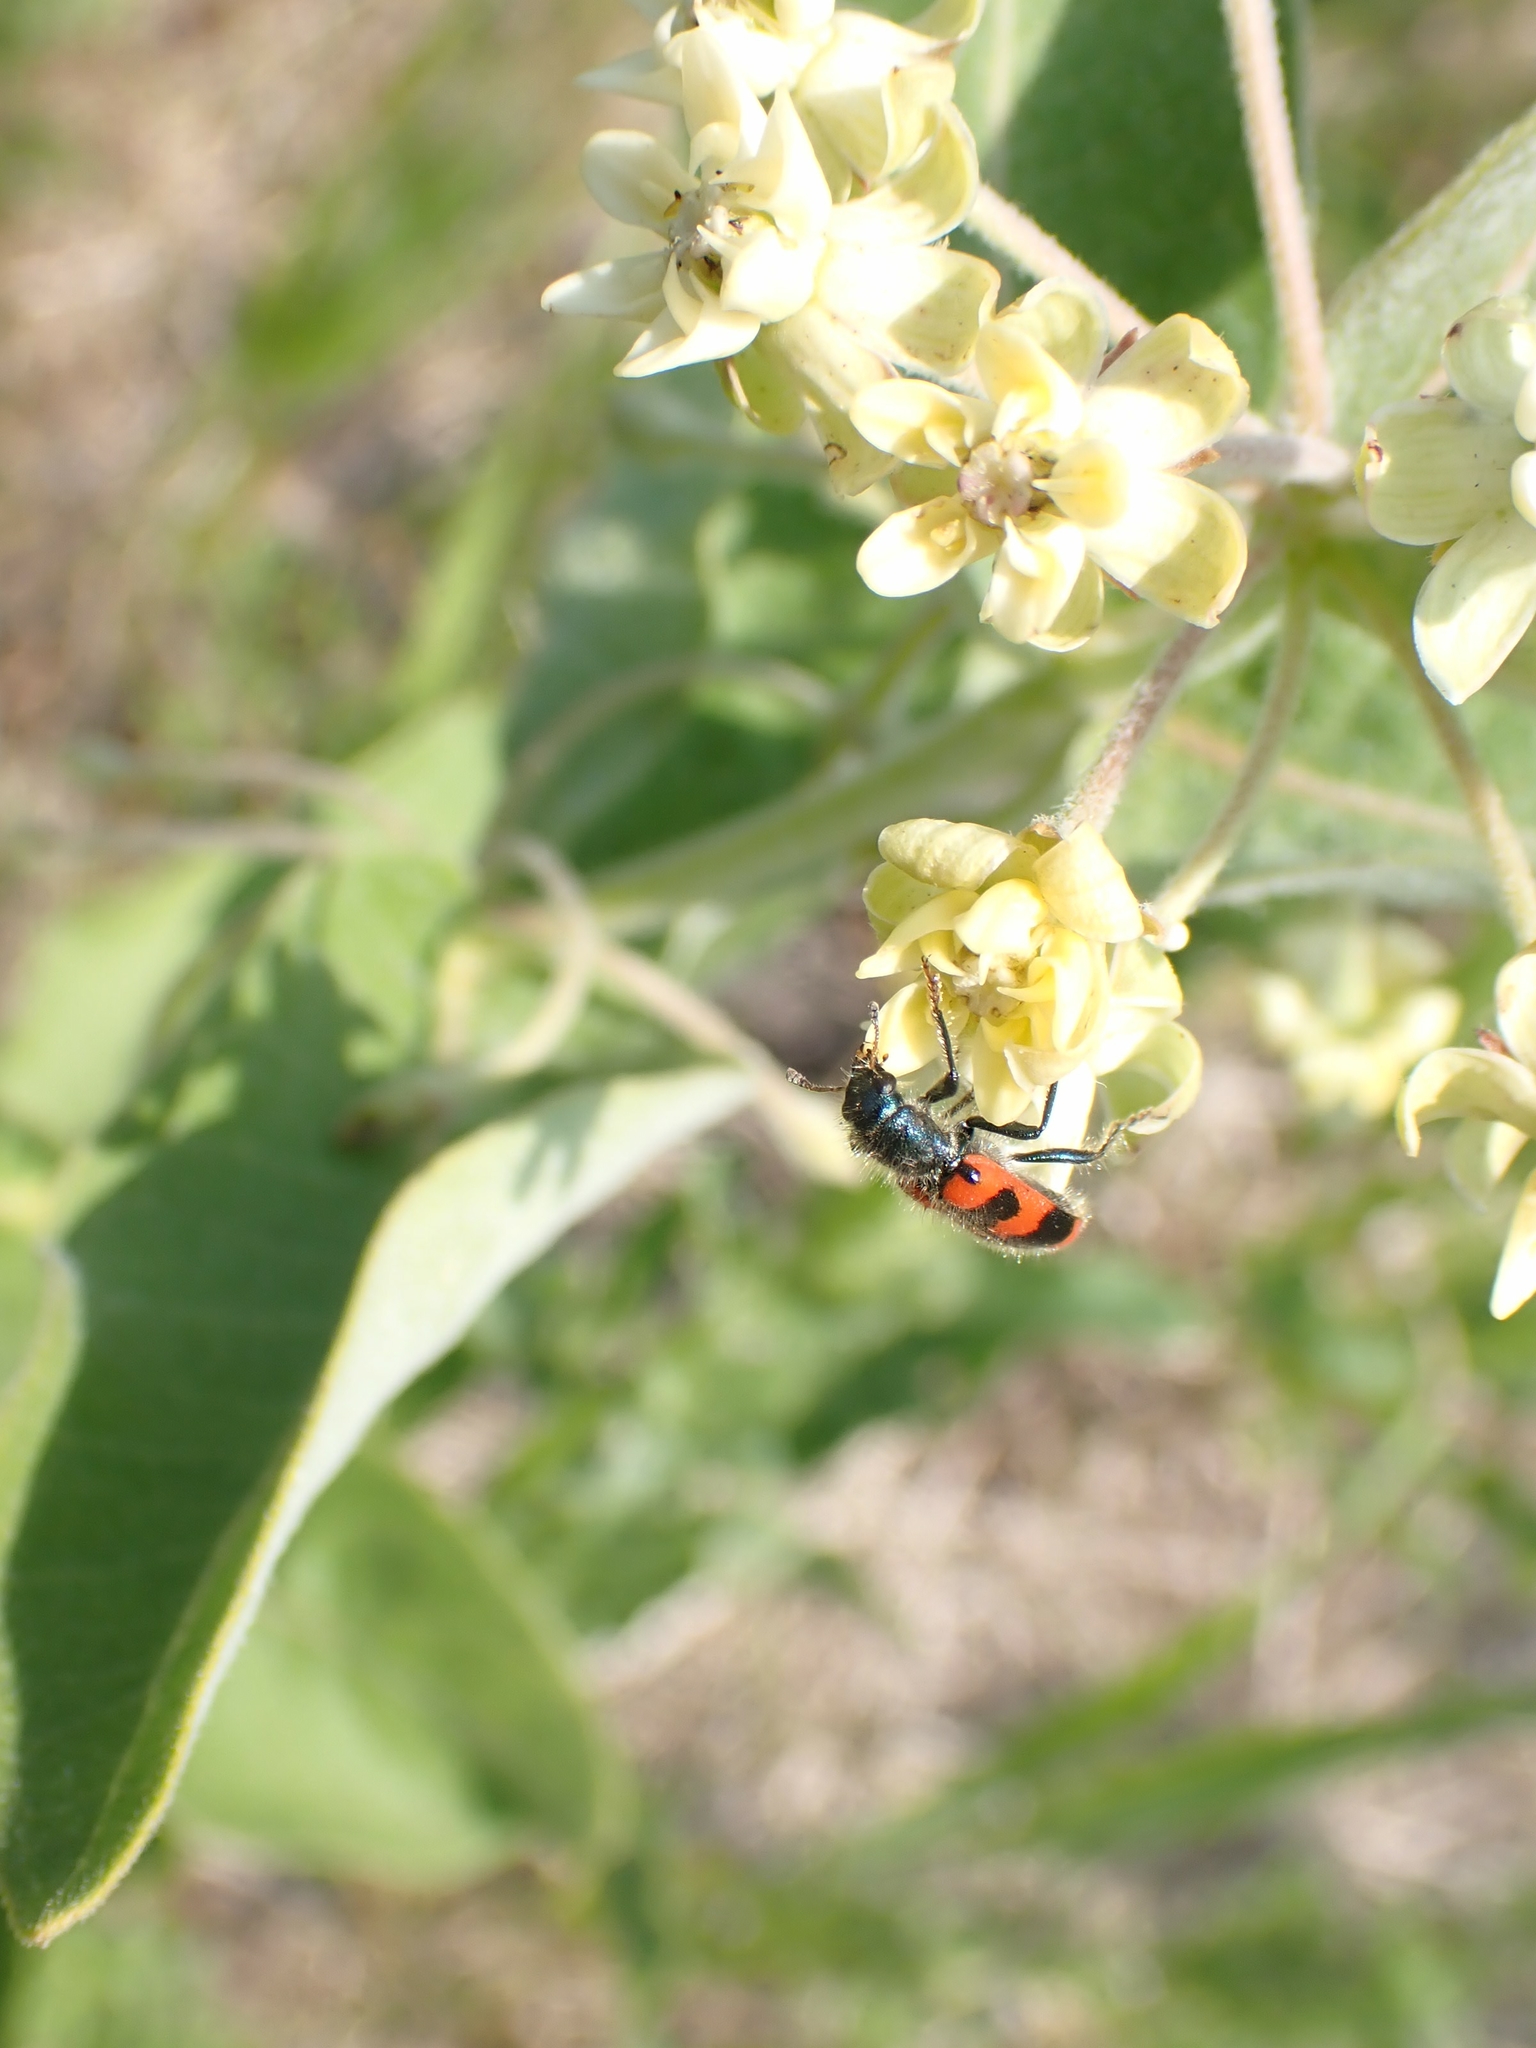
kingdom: Plantae
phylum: Tracheophyta
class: Magnoliopsida
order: Gentianales
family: Apocynaceae
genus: Asclepias
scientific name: Asclepias ovalifolia
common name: Dwarf milkweed
